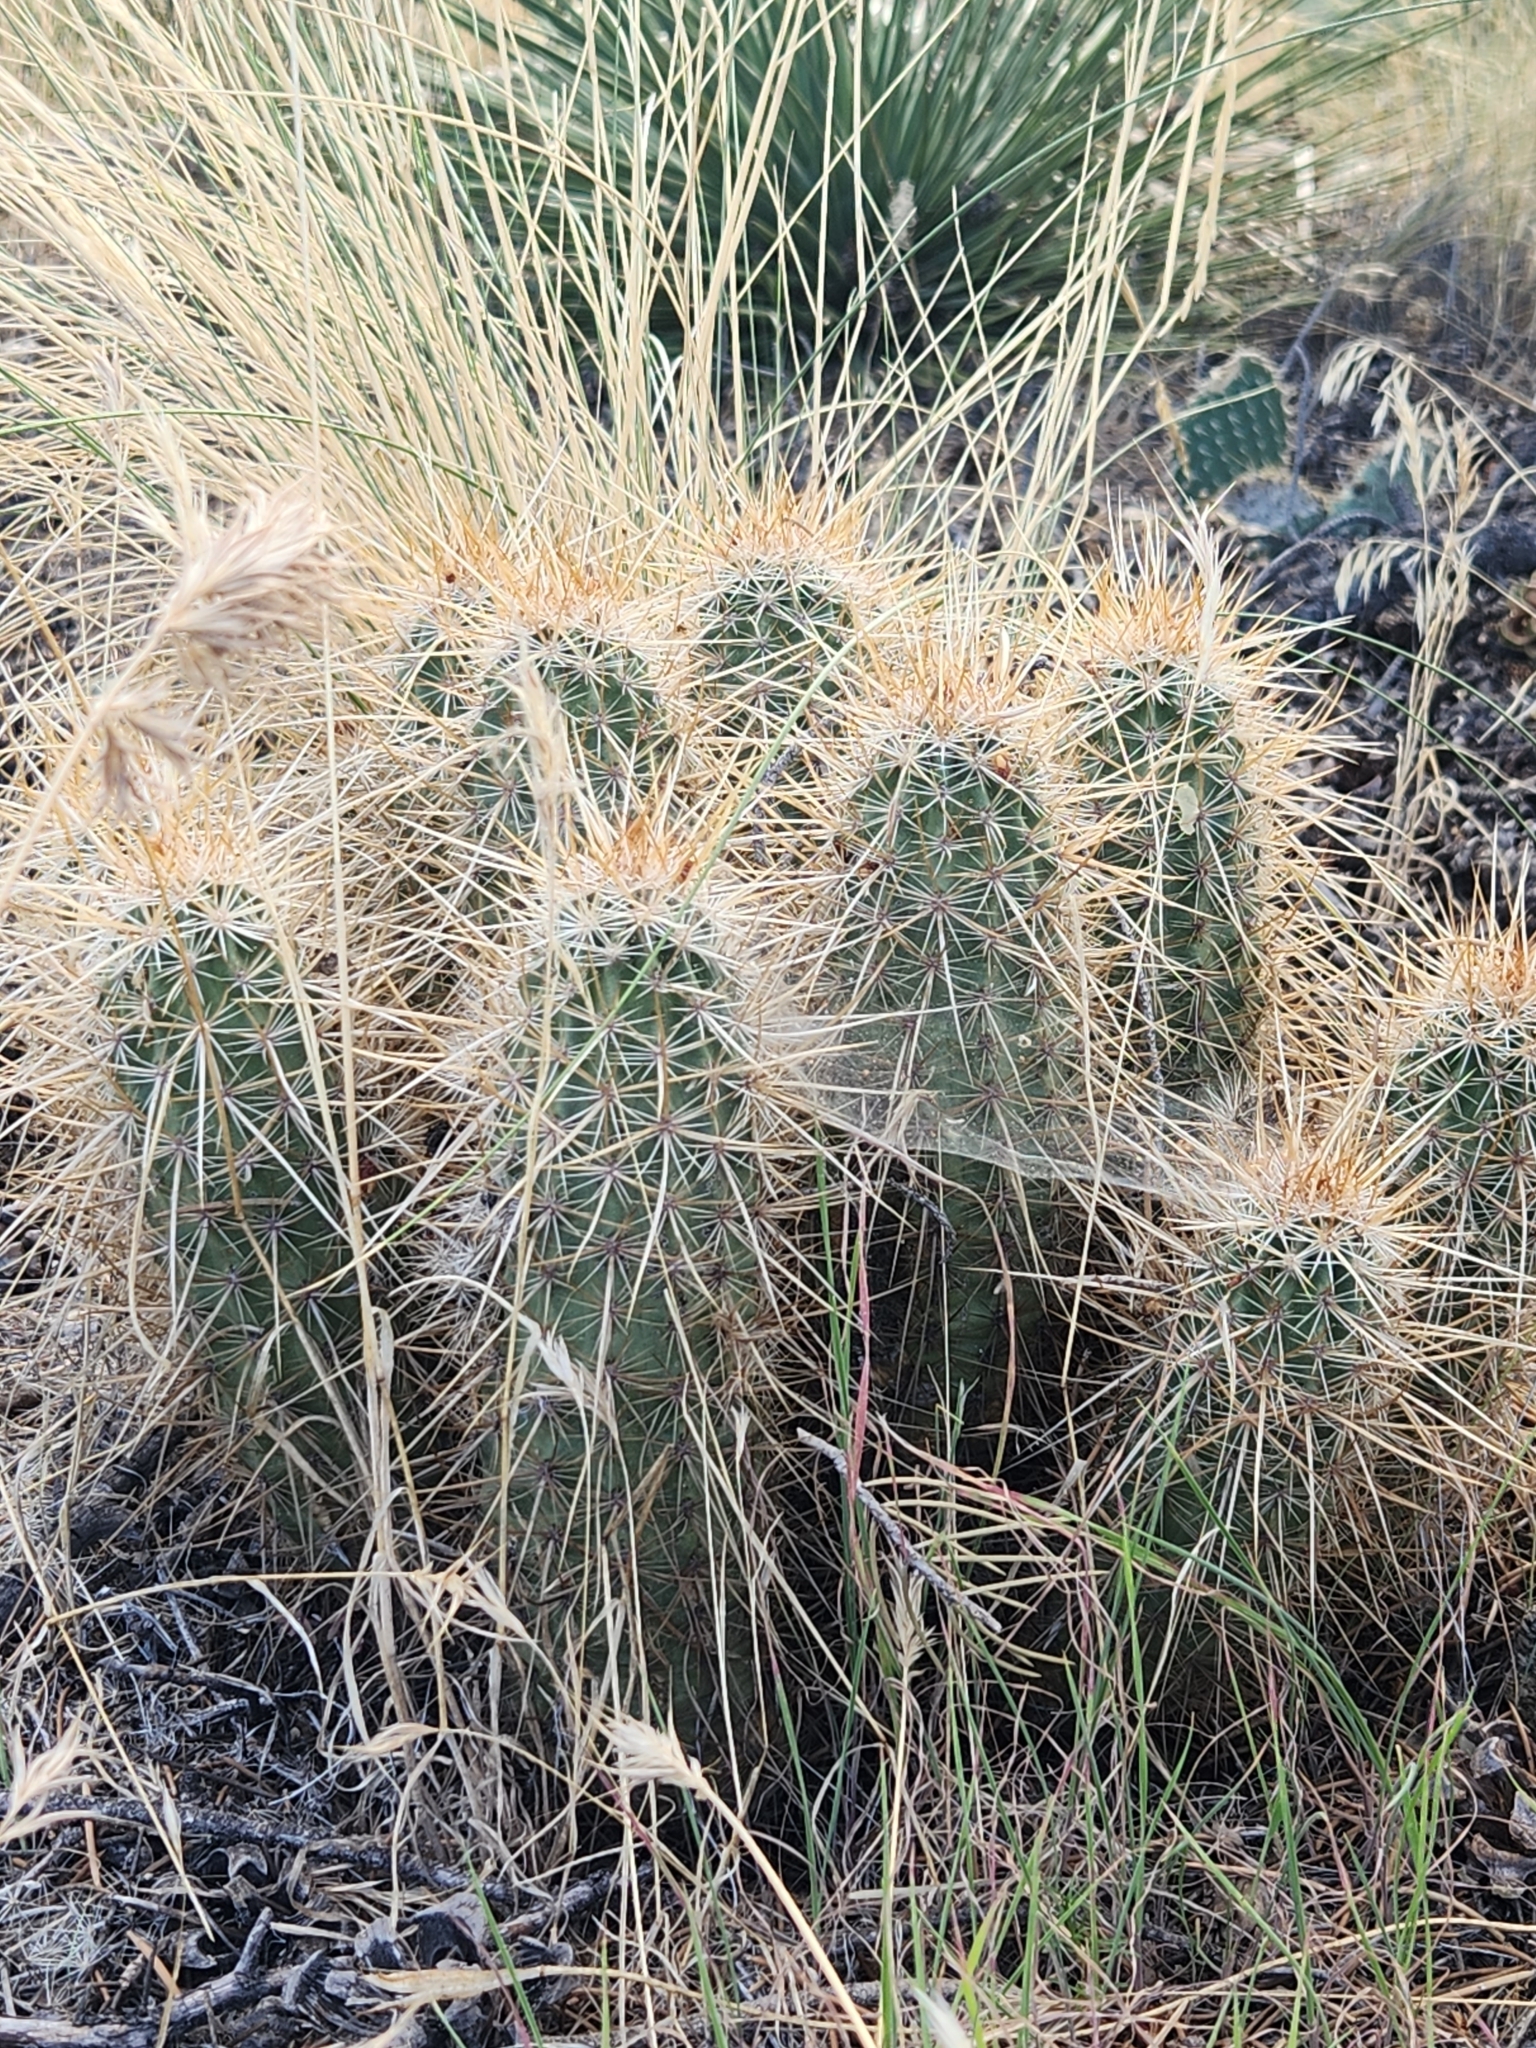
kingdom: Plantae
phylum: Tracheophyta
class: Magnoliopsida
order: Caryophyllales
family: Cactaceae
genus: Echinocereus
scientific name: Echinocereus engelmannii
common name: Engelmann's hedgehog cactus
